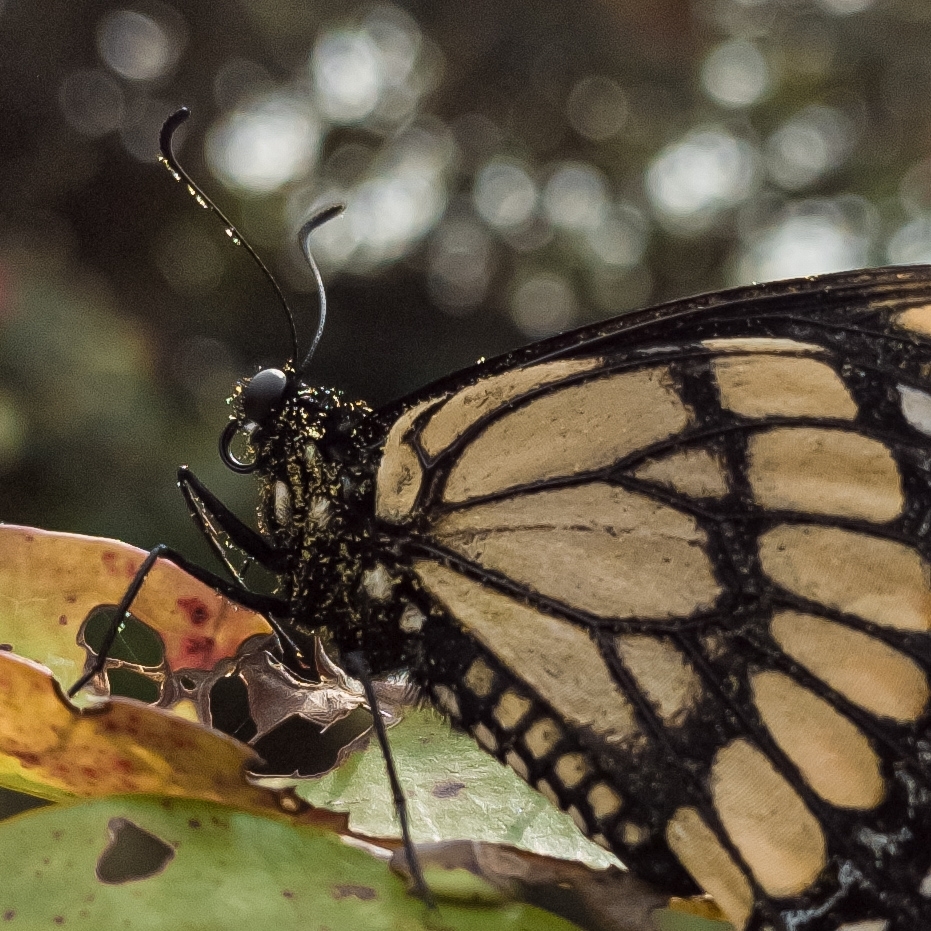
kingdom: Animalia
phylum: Arthropoda
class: Insecta
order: Lepidoptera
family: Papilionidae
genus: Papilio
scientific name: Papilio scamander
